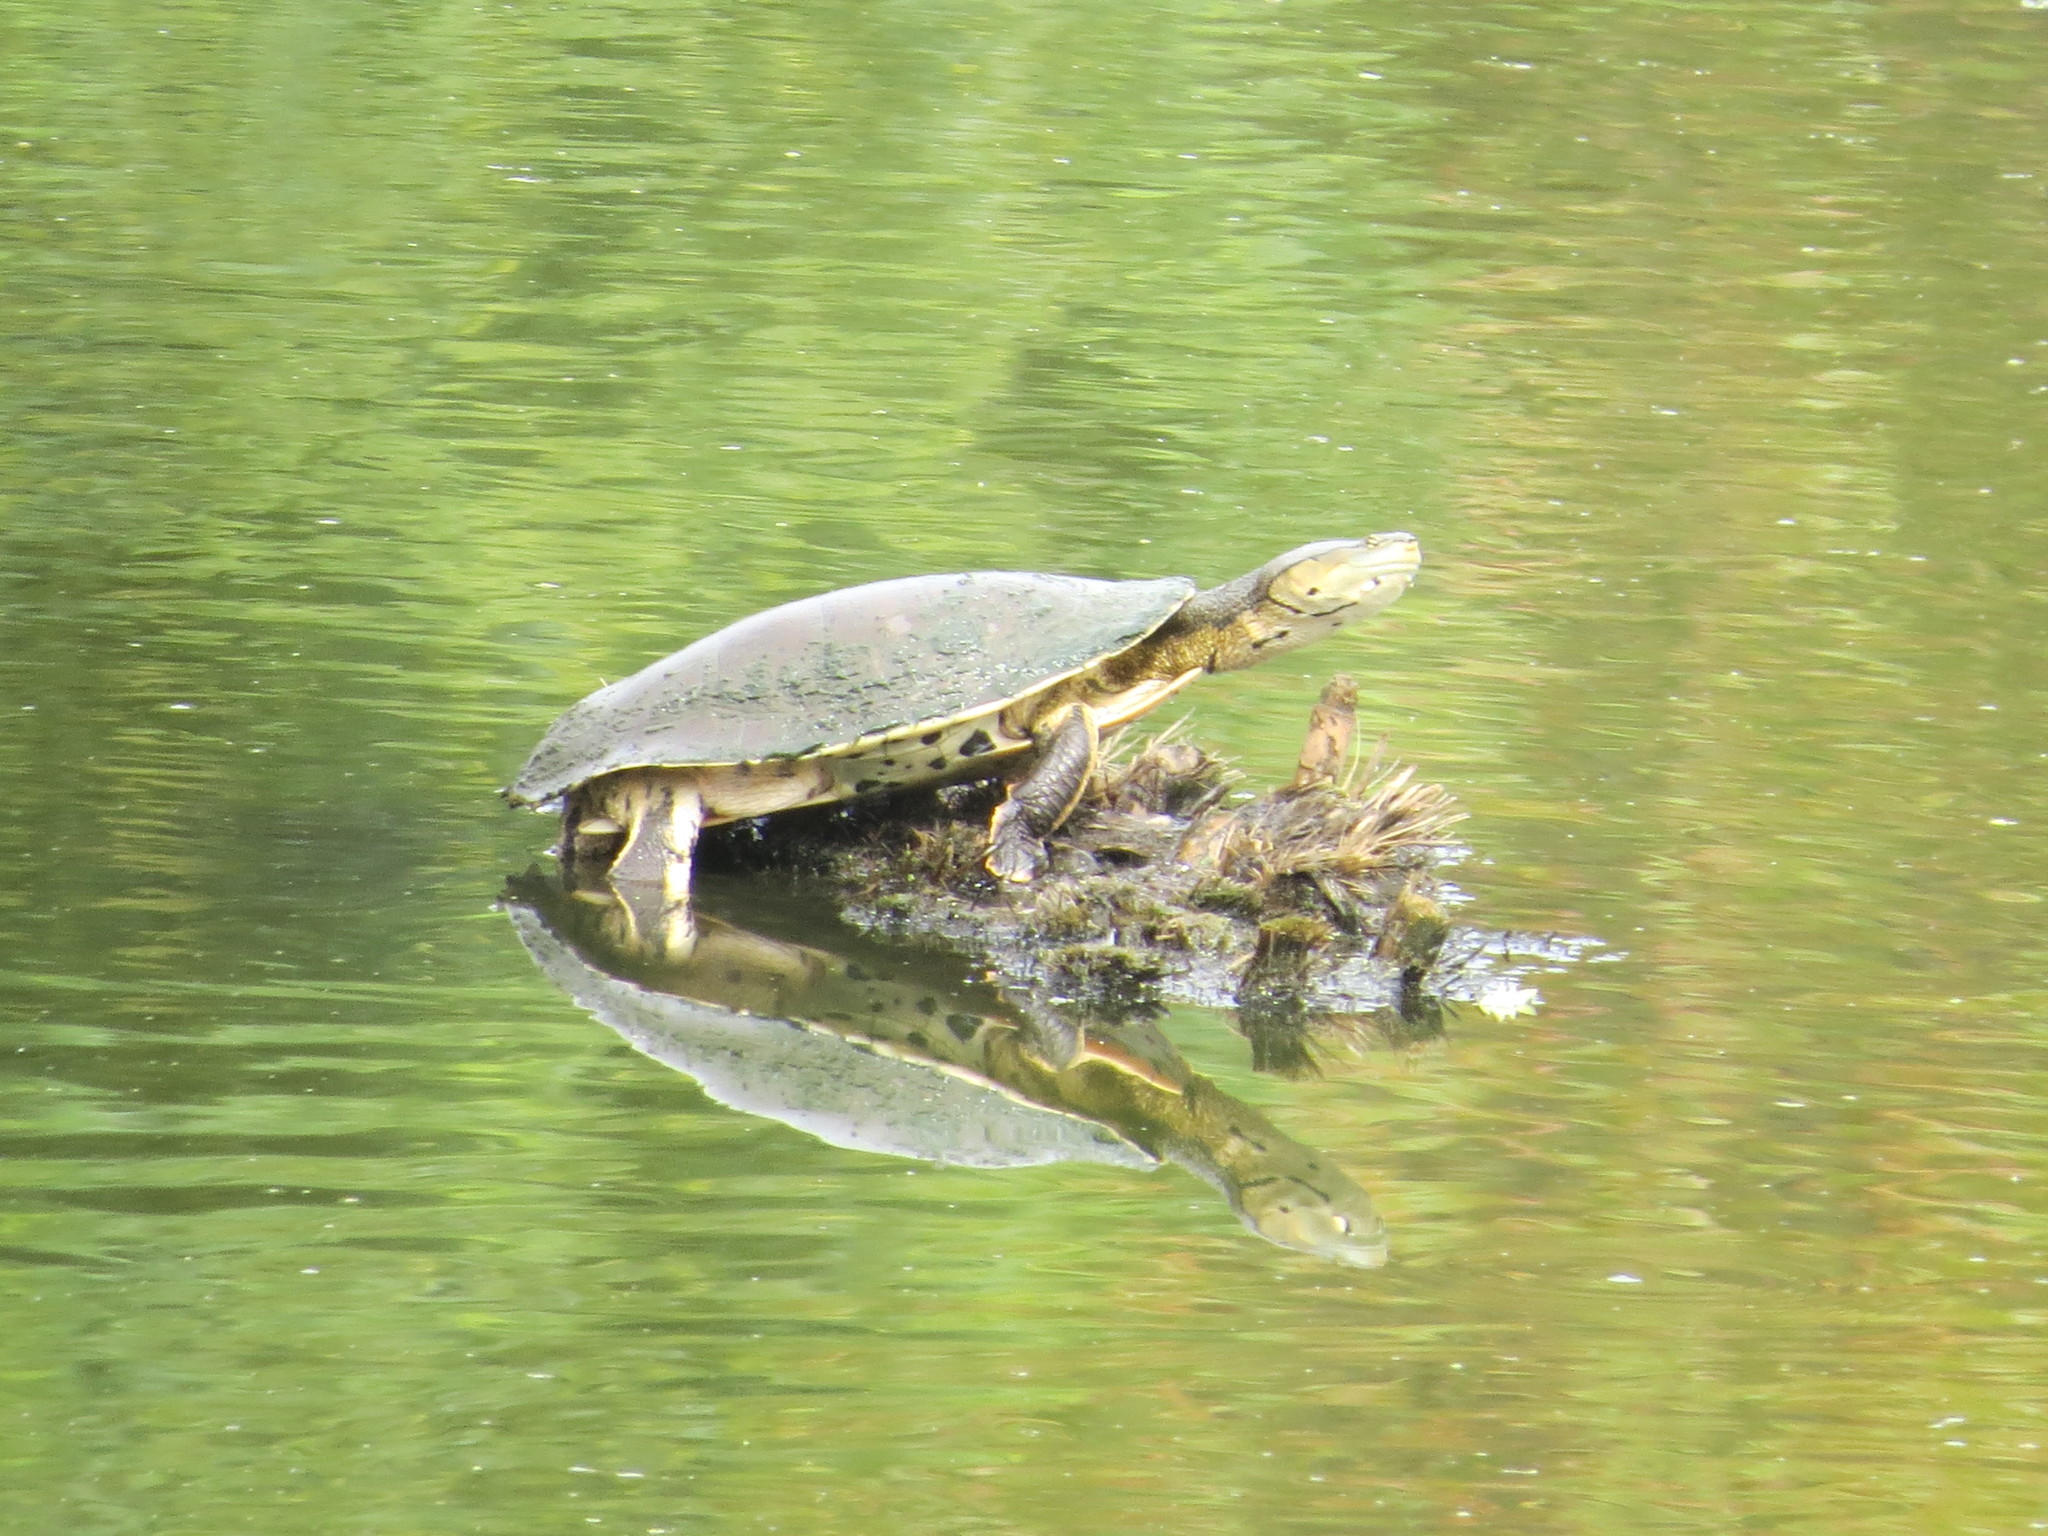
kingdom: Animalia
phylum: Chordata
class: Testudines
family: Chelidae
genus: Phrynops
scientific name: Phrynops hilarii
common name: Side-necked turtle of saint hillaire
